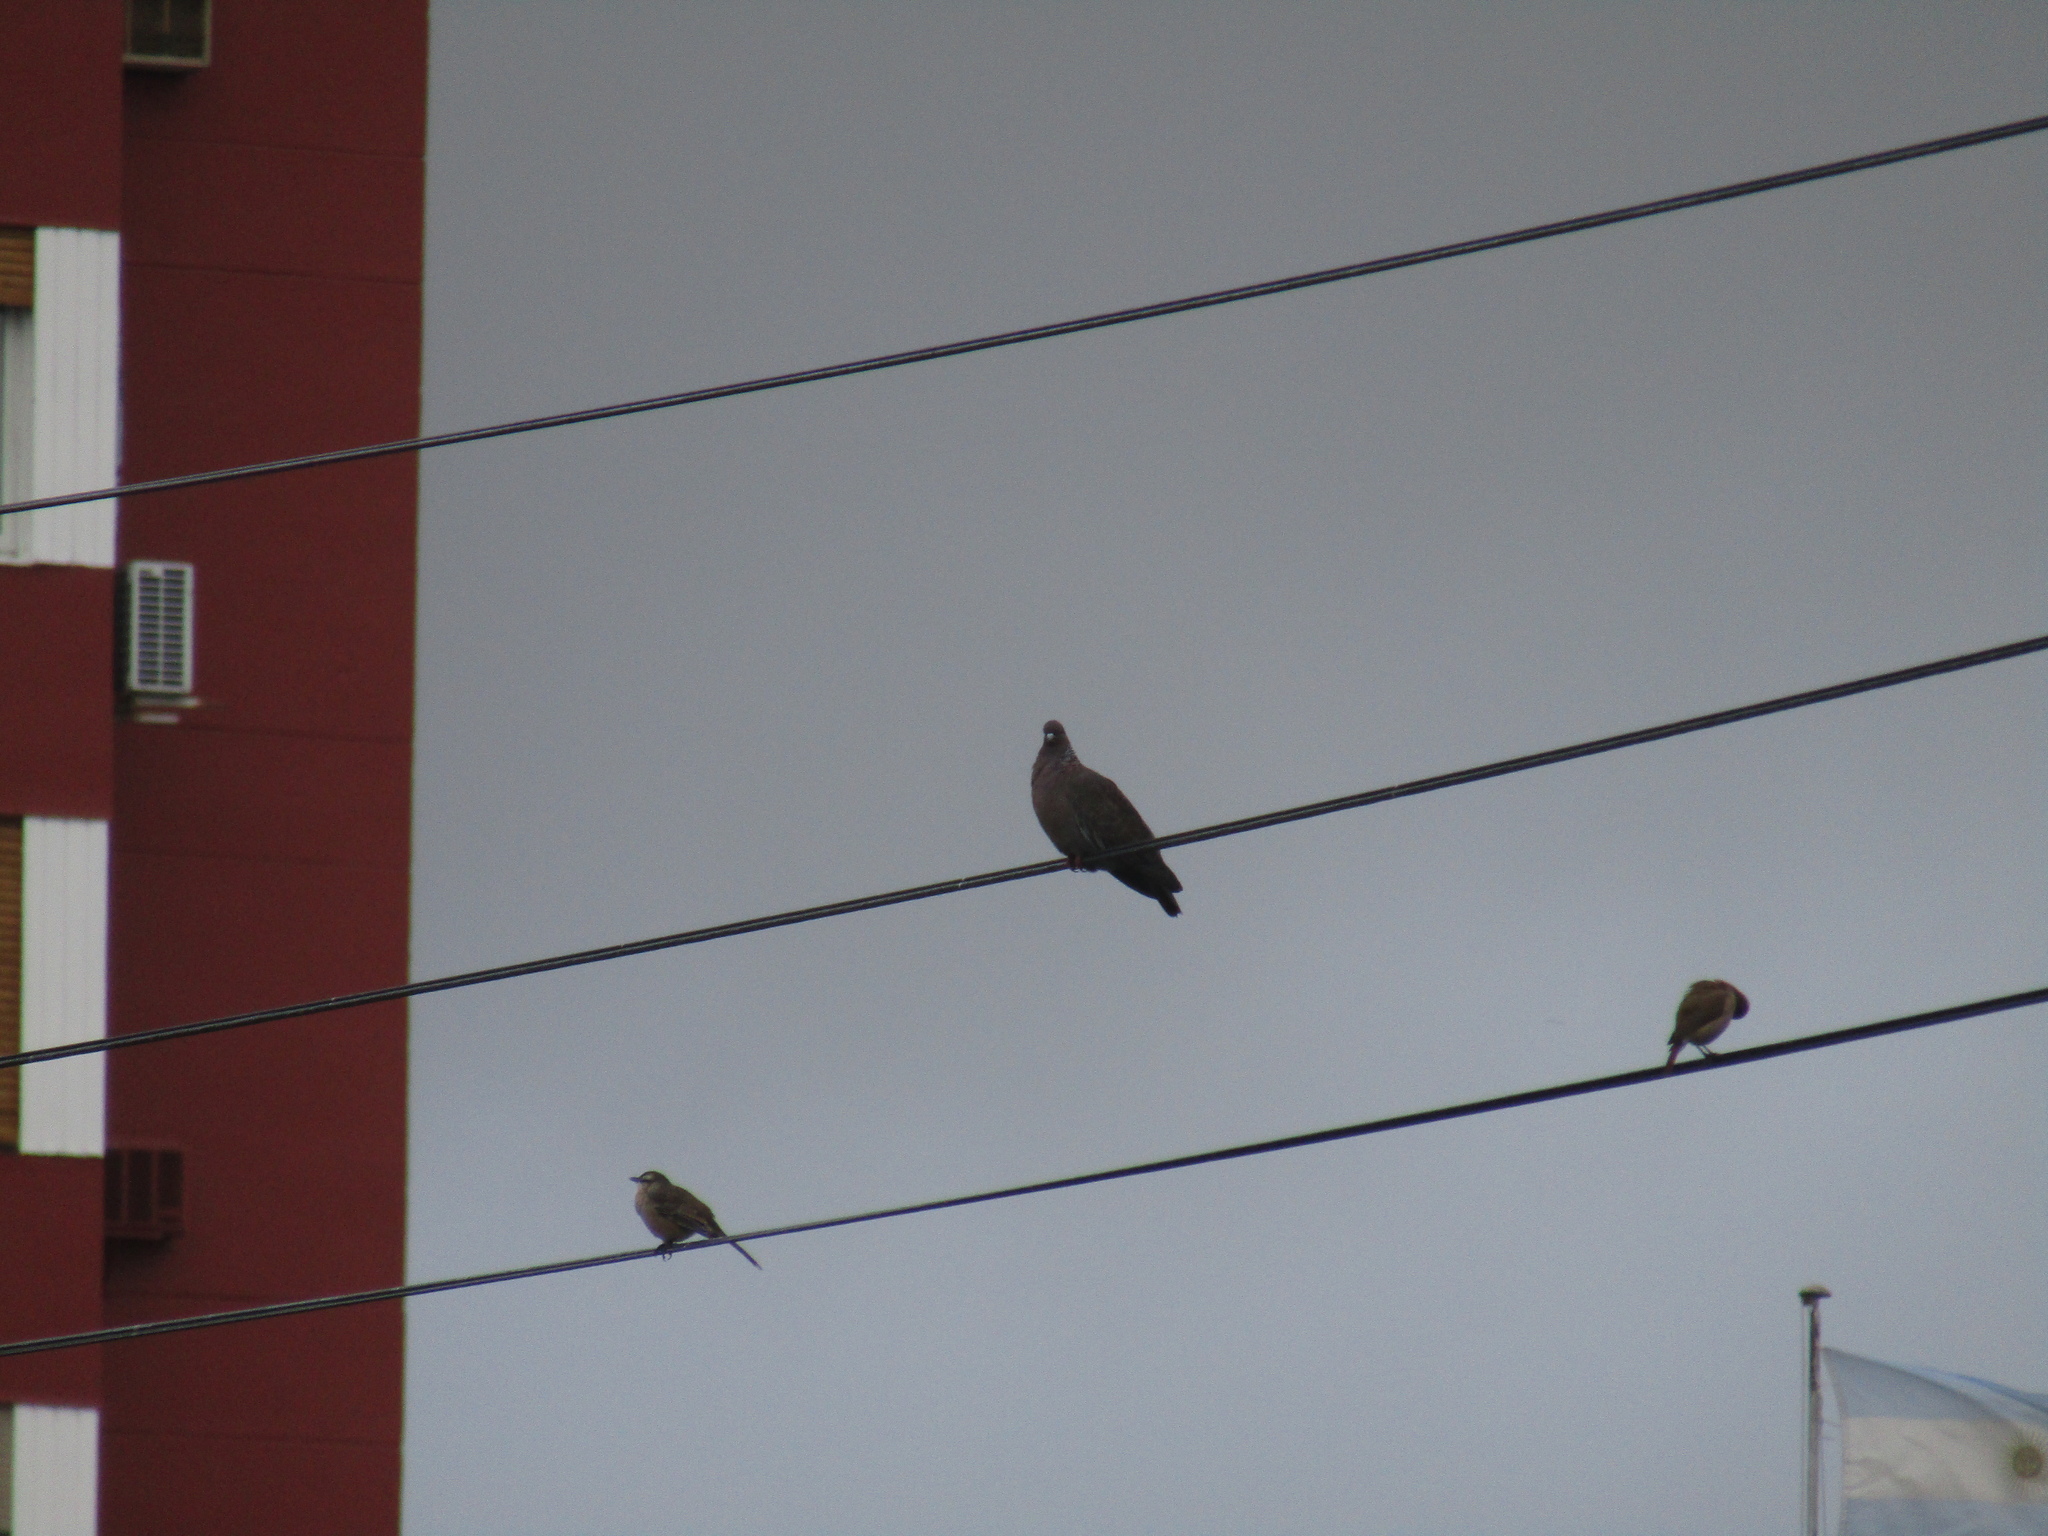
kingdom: Animalia
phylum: Chordata
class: Aves
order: Columbiformes
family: Columbidae
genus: Patagioenas
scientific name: Patagioenas picazuro
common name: Picazuro pigeon
